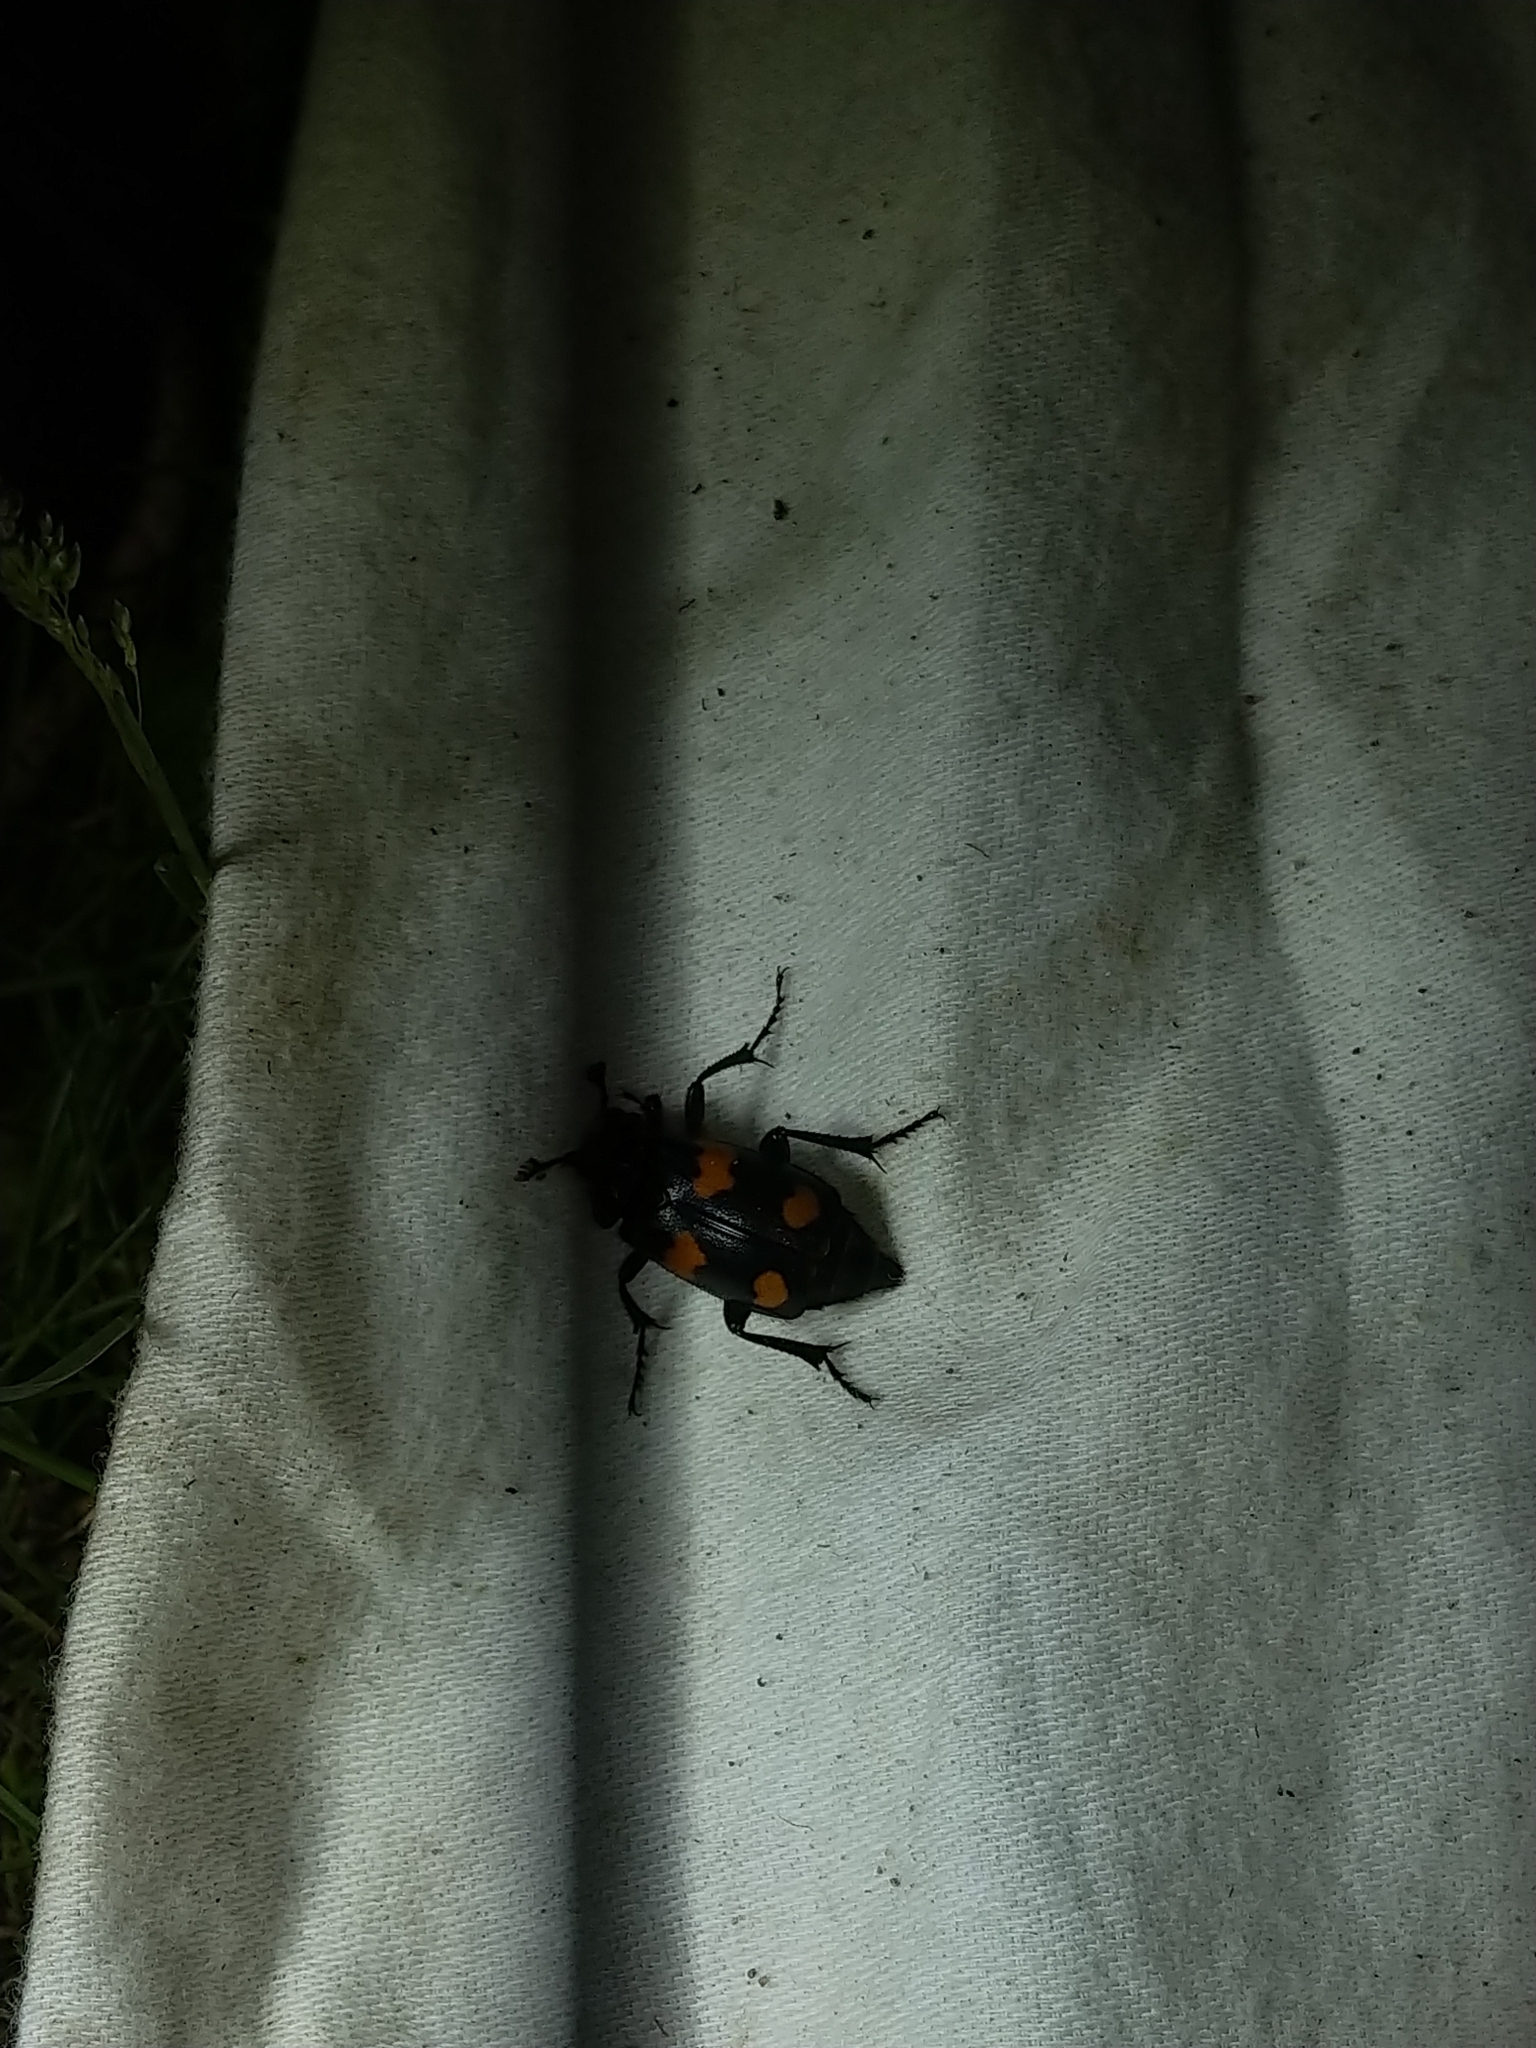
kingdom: Animalia
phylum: Arthropoda
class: Insecta
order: Coleoptera
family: Staphylinidae
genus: Nicrophorus
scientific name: Nicrophorus orbicollis
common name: Roundneck sexton beetle
